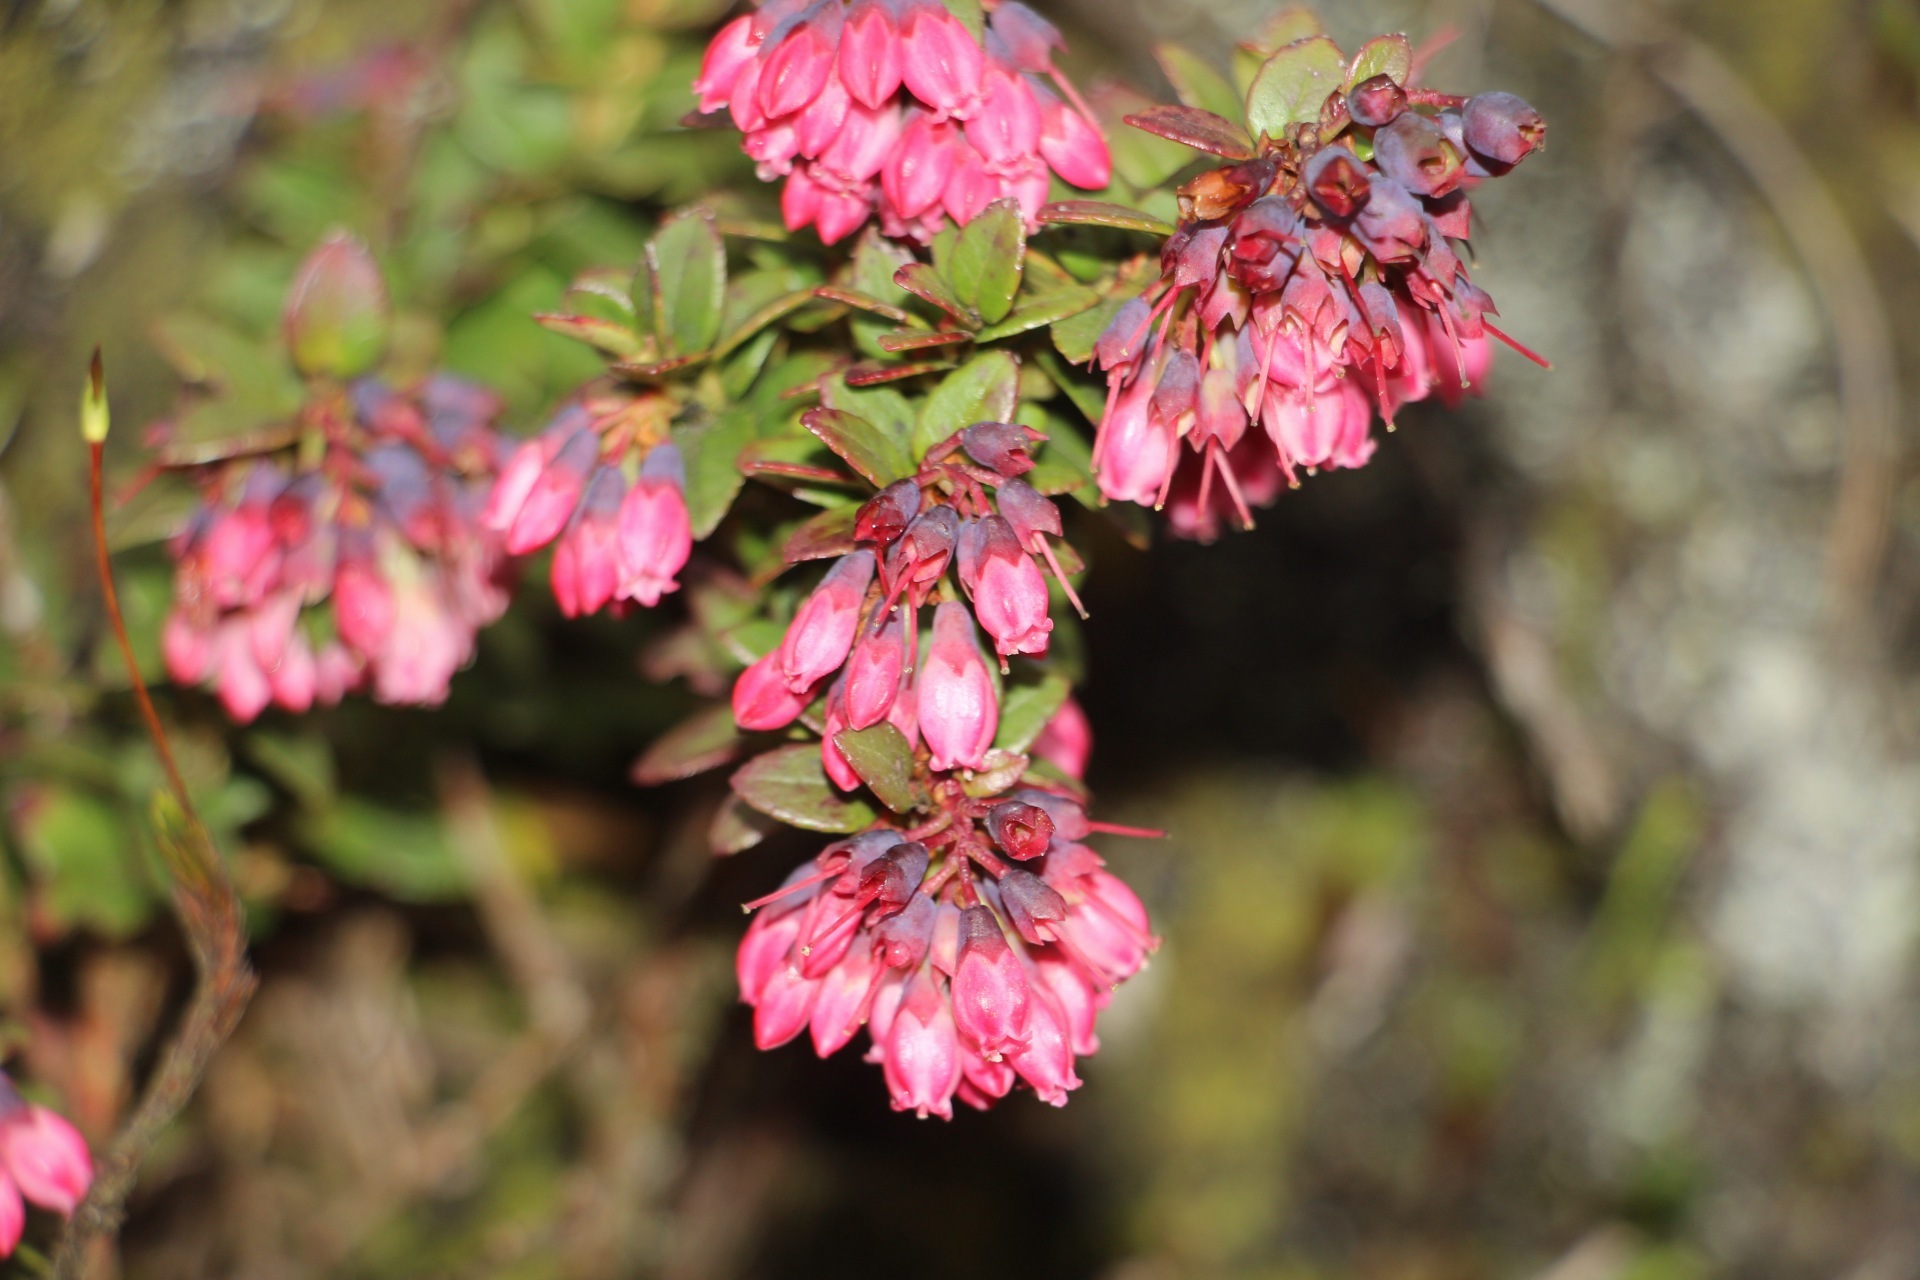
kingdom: Plantae
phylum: Tracheophyta
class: Magnoliopsida
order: Ericales
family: Ericaceae
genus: Vaccinium
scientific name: Vaccinium floribundum
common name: Colombian blueberry
